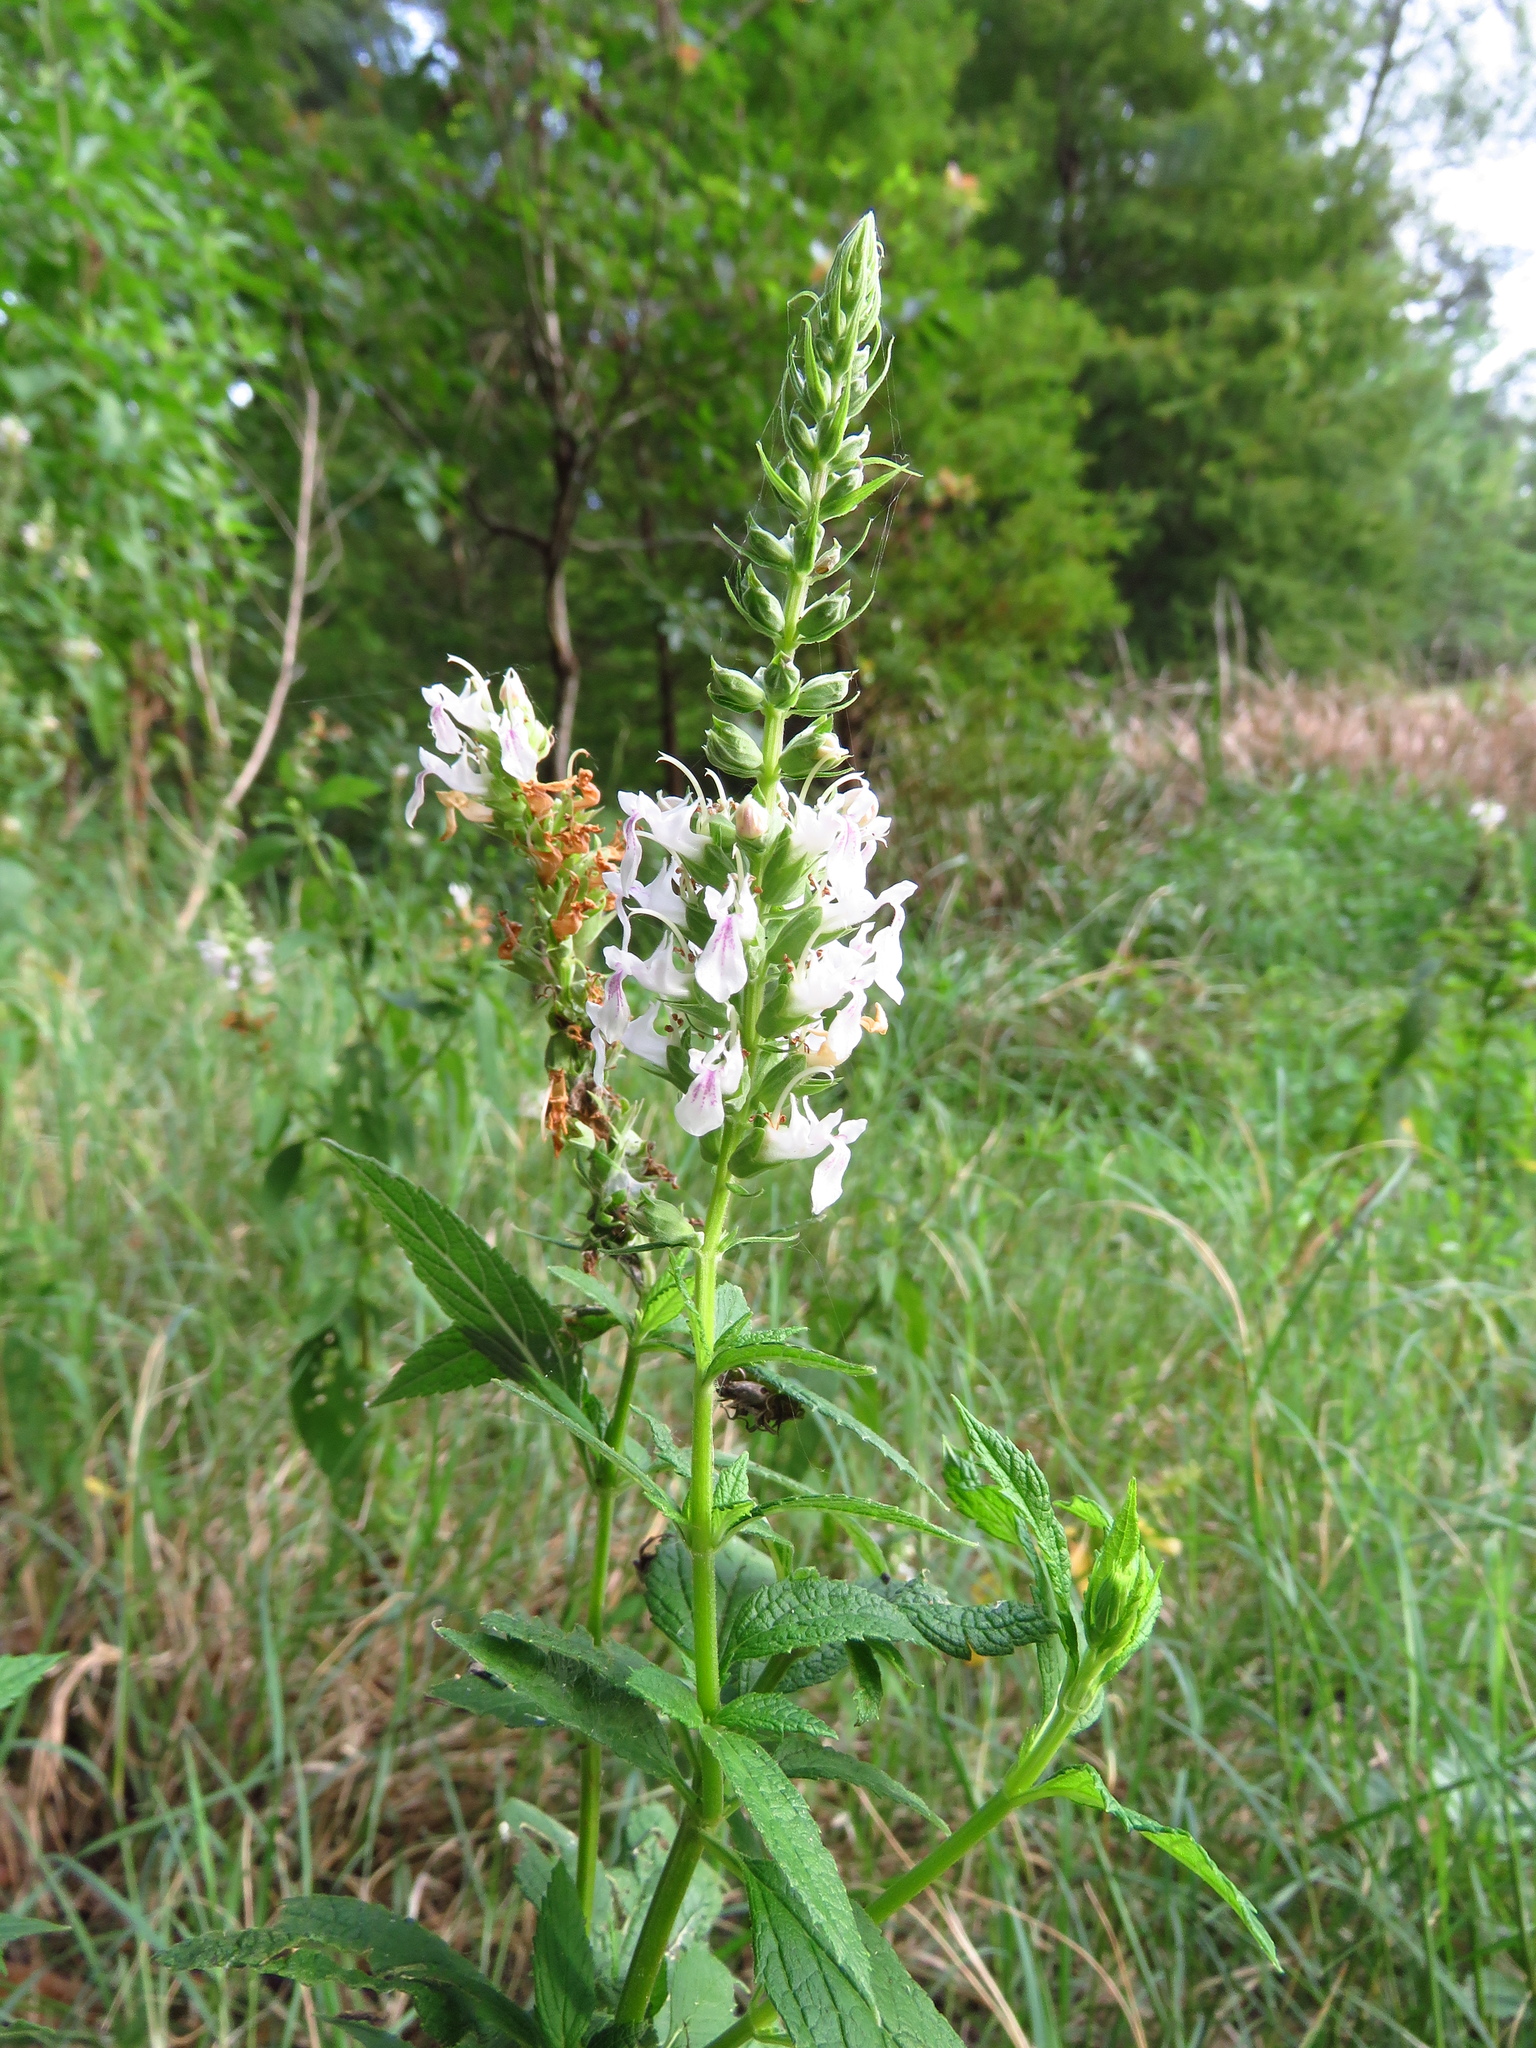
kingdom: Plantae
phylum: Tracheophyta
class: Magnoliopsida
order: Lamiales
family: Lamiaceae
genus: Teucrium
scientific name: Teucrium canadense
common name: American germander
